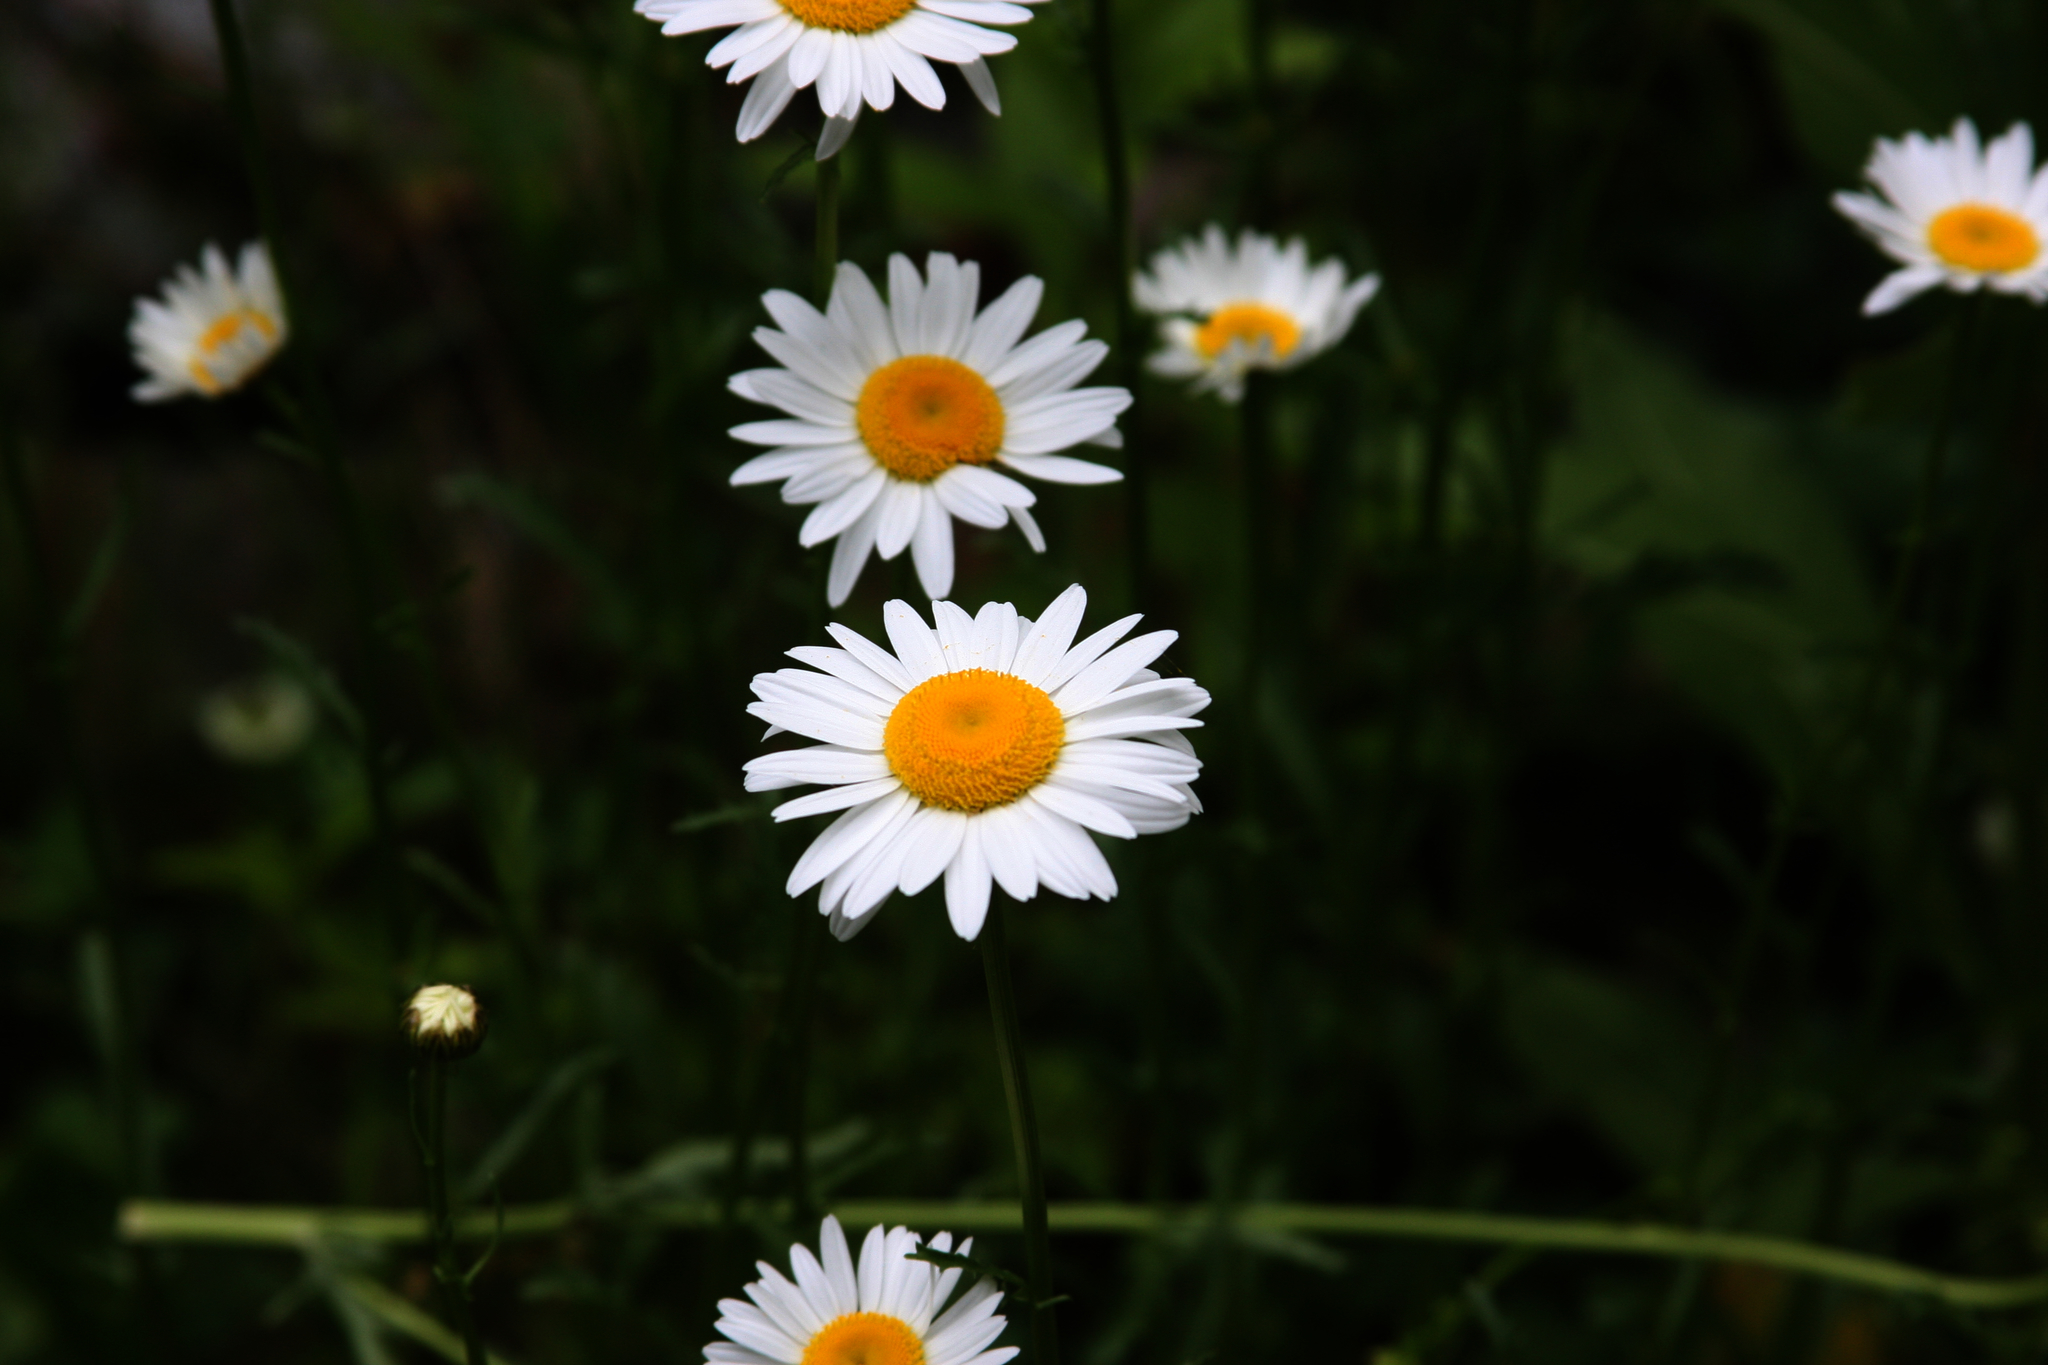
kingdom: Plantae
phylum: Tracheophyta
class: Magnoliopsida
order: Asterales
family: Asteraceae
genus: Leucanthemum
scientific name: Leucanthemum vulgare
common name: Oxeye daisy
